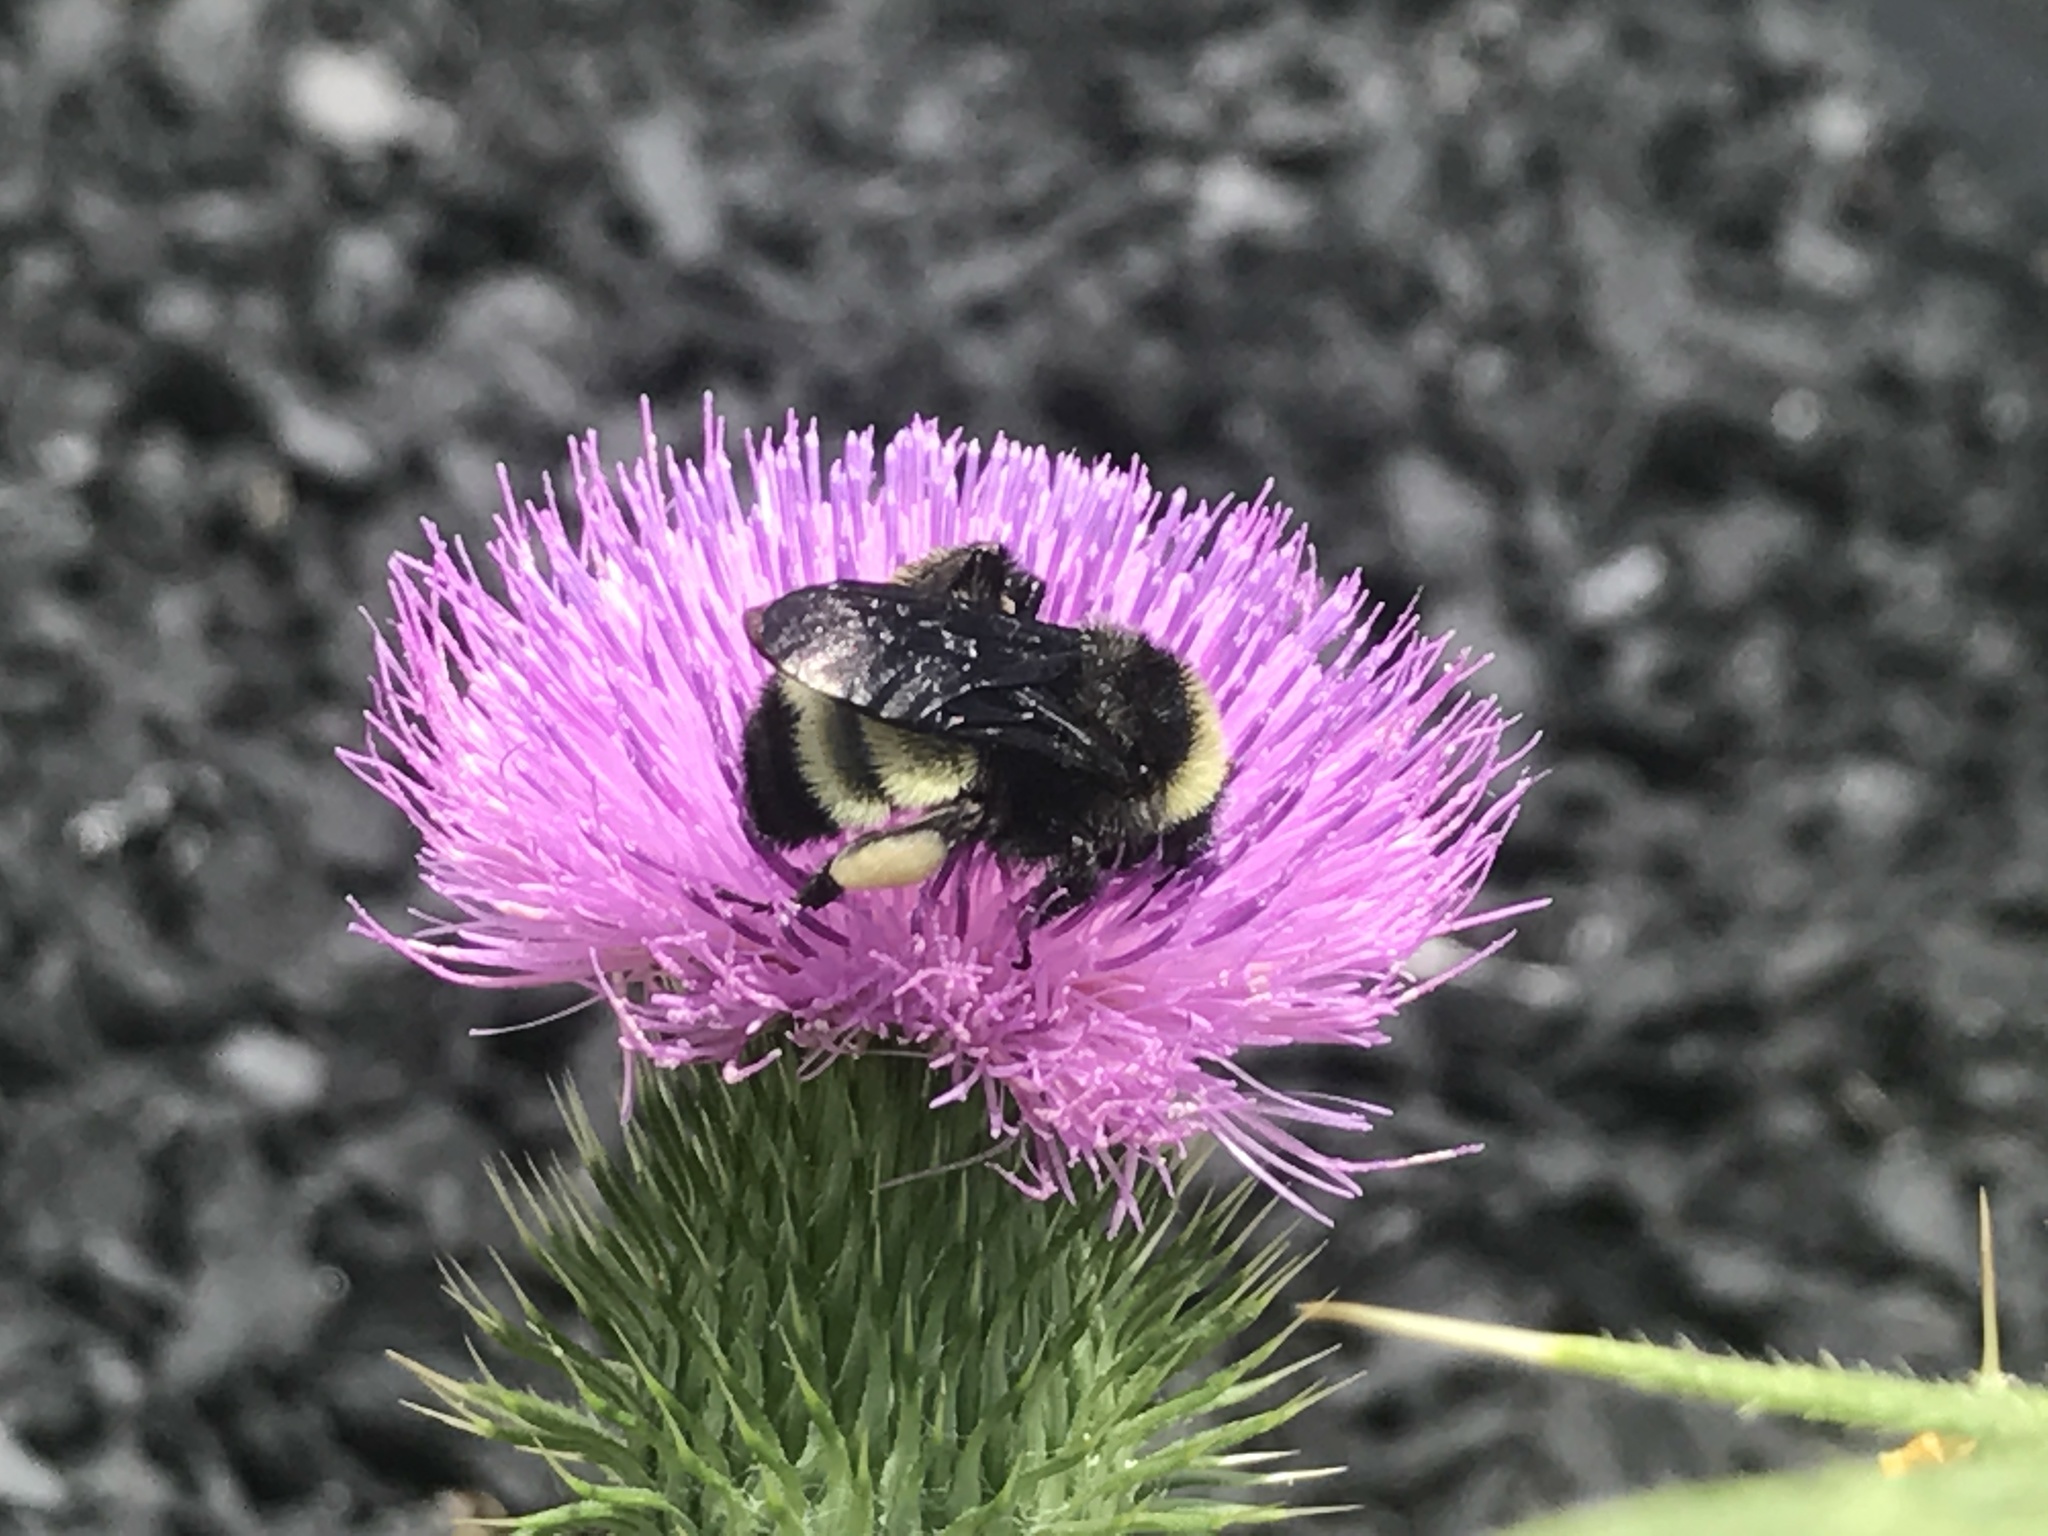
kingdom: Animalia
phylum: Arthropoda
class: Insecta
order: Hymenoptera
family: Apidae
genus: Bombus
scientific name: Bombus pensylvanicus
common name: Bumble bee
